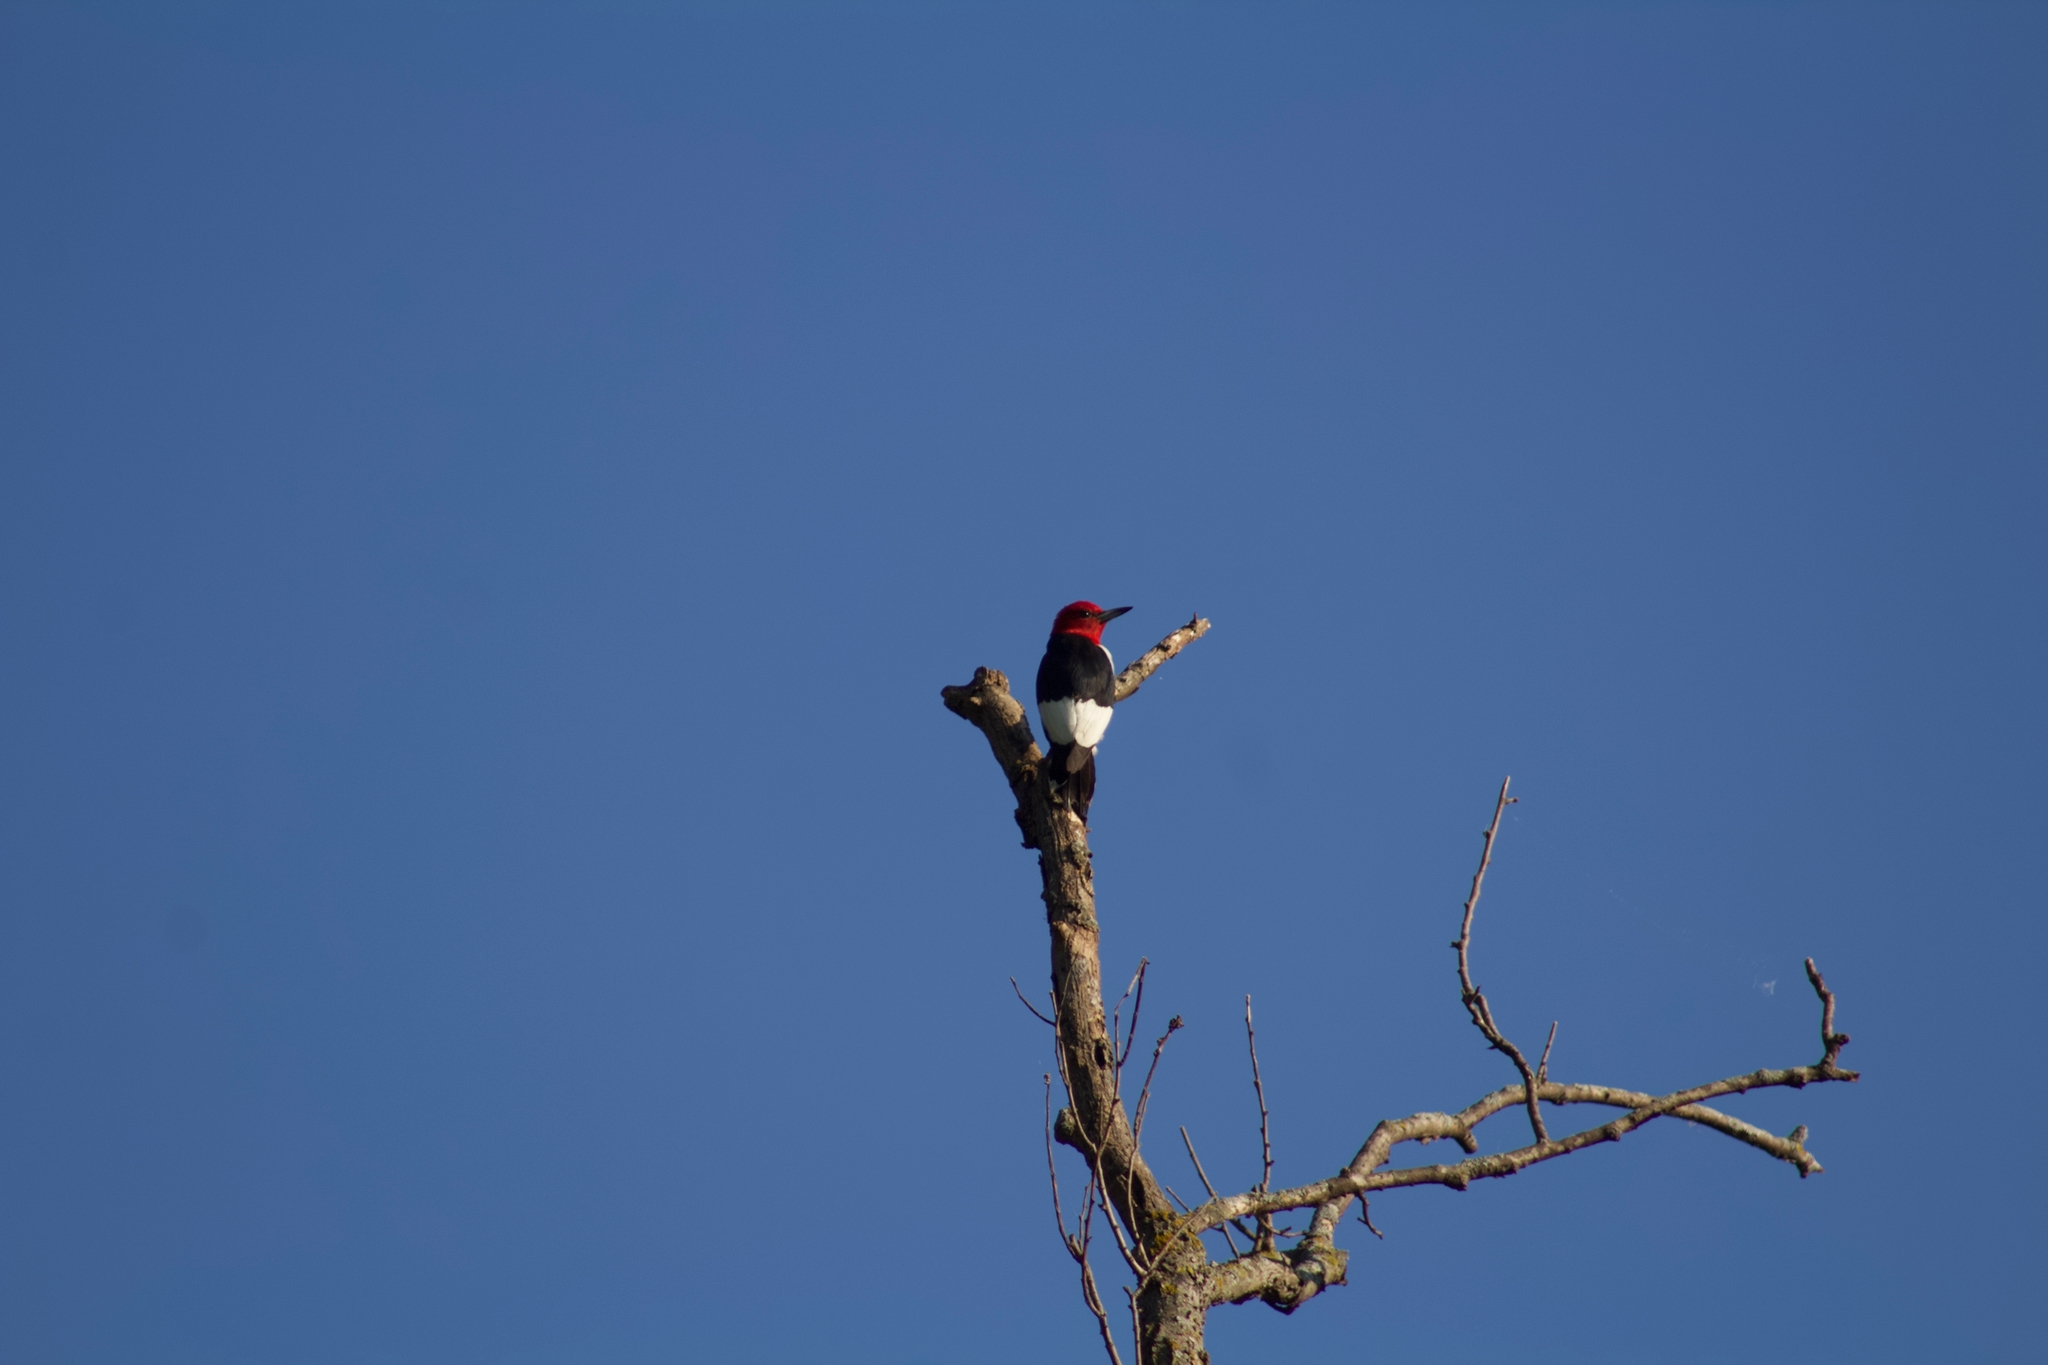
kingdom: Animalia
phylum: Chordata
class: Aves
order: Piciformes
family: Picidae
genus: Melanerpes
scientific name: Melanerpes erythrocephalus
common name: Red-headed woodpecker
